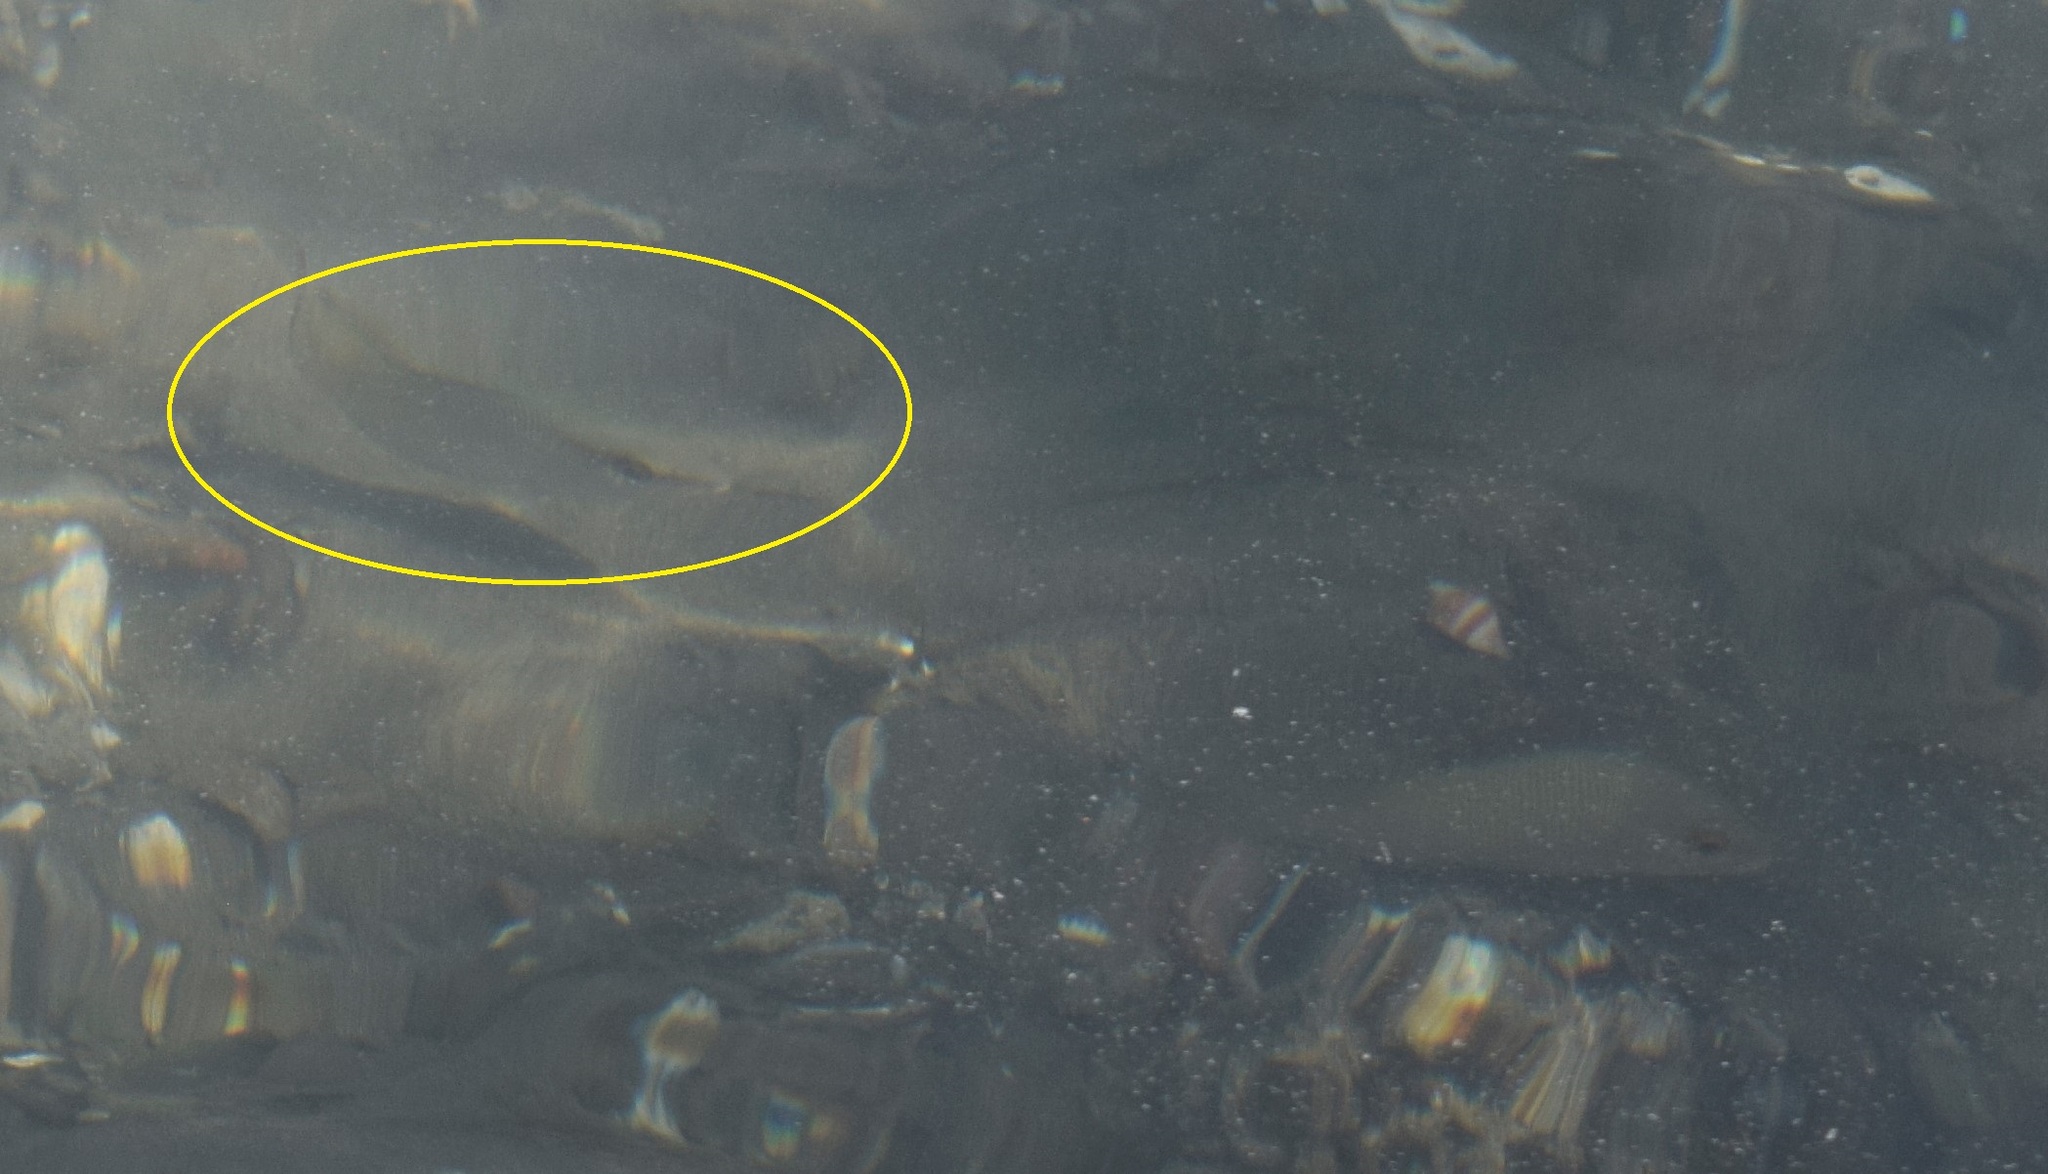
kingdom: Animalia
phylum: Chordata
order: Perciformes
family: Lutjanidae
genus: Lutjanus
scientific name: Lutjanus griseus
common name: Gray snapper
